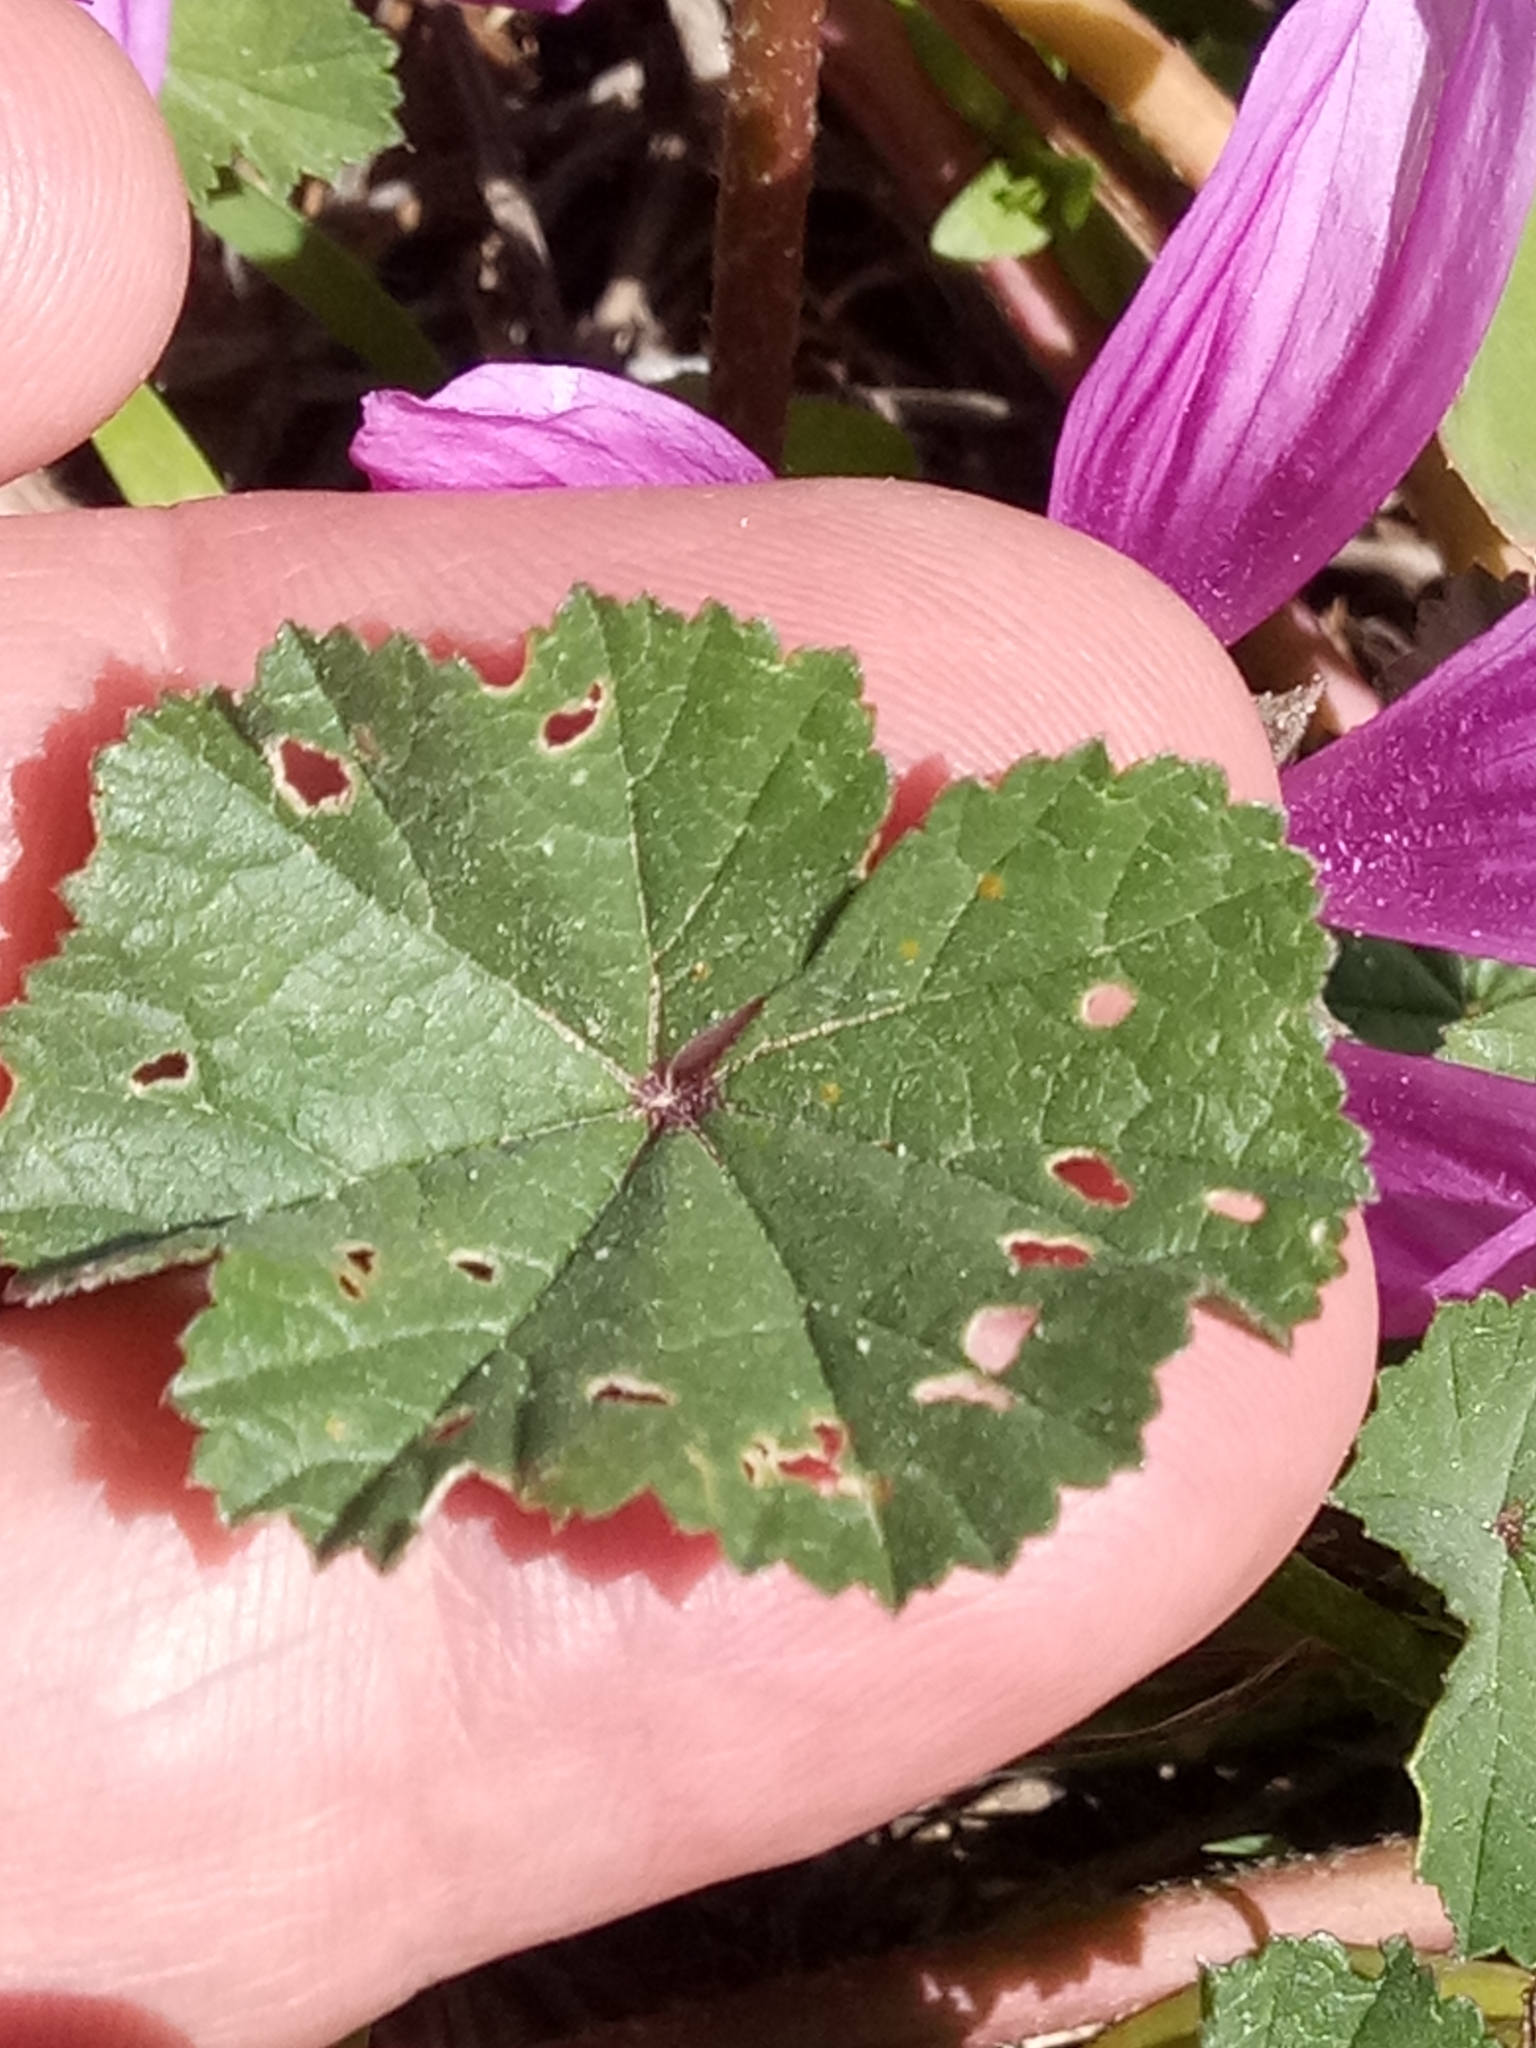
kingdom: Plantae
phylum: Tracheophyta
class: Magnoliopsida
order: Malvales
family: Malvaceae
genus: Malva
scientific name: Malva sylvestris
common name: Common mallow
